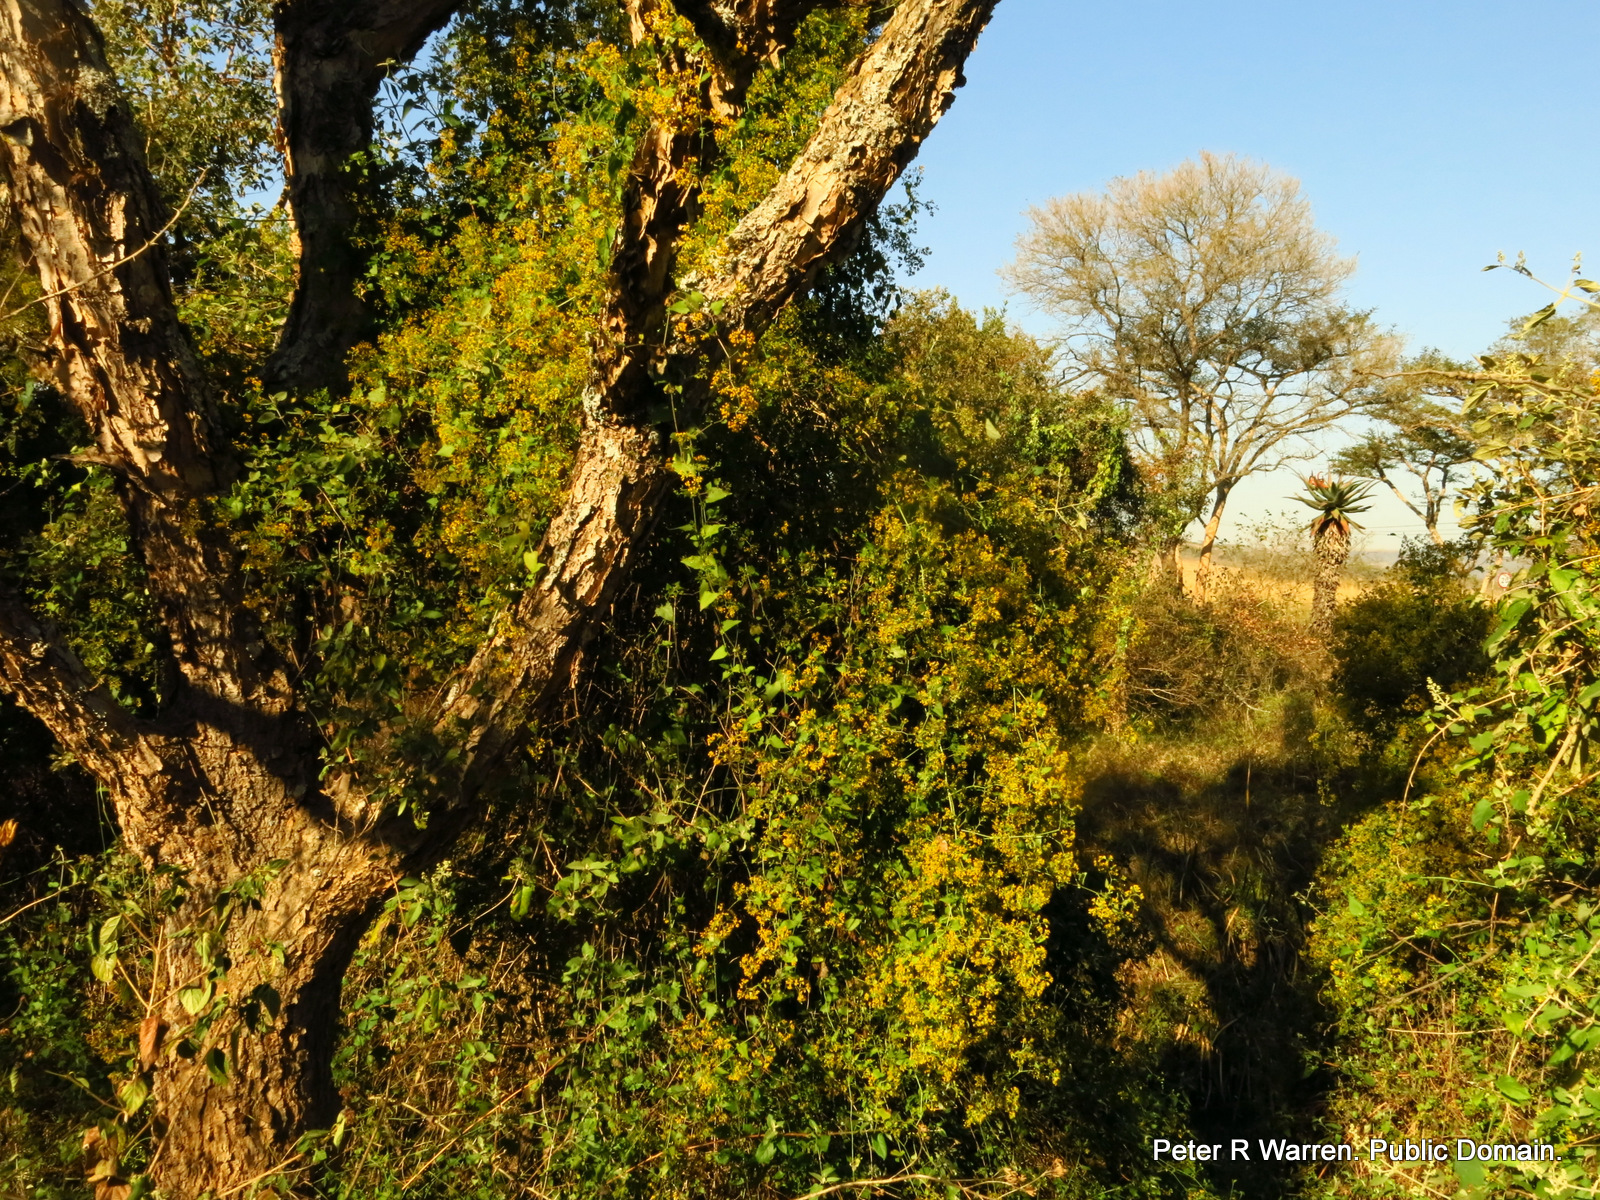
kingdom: Plantae
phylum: Tracheophyta
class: Magnoliopsida
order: Asterales
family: Asteraceae
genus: Senecio
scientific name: Senecio deltoideus
